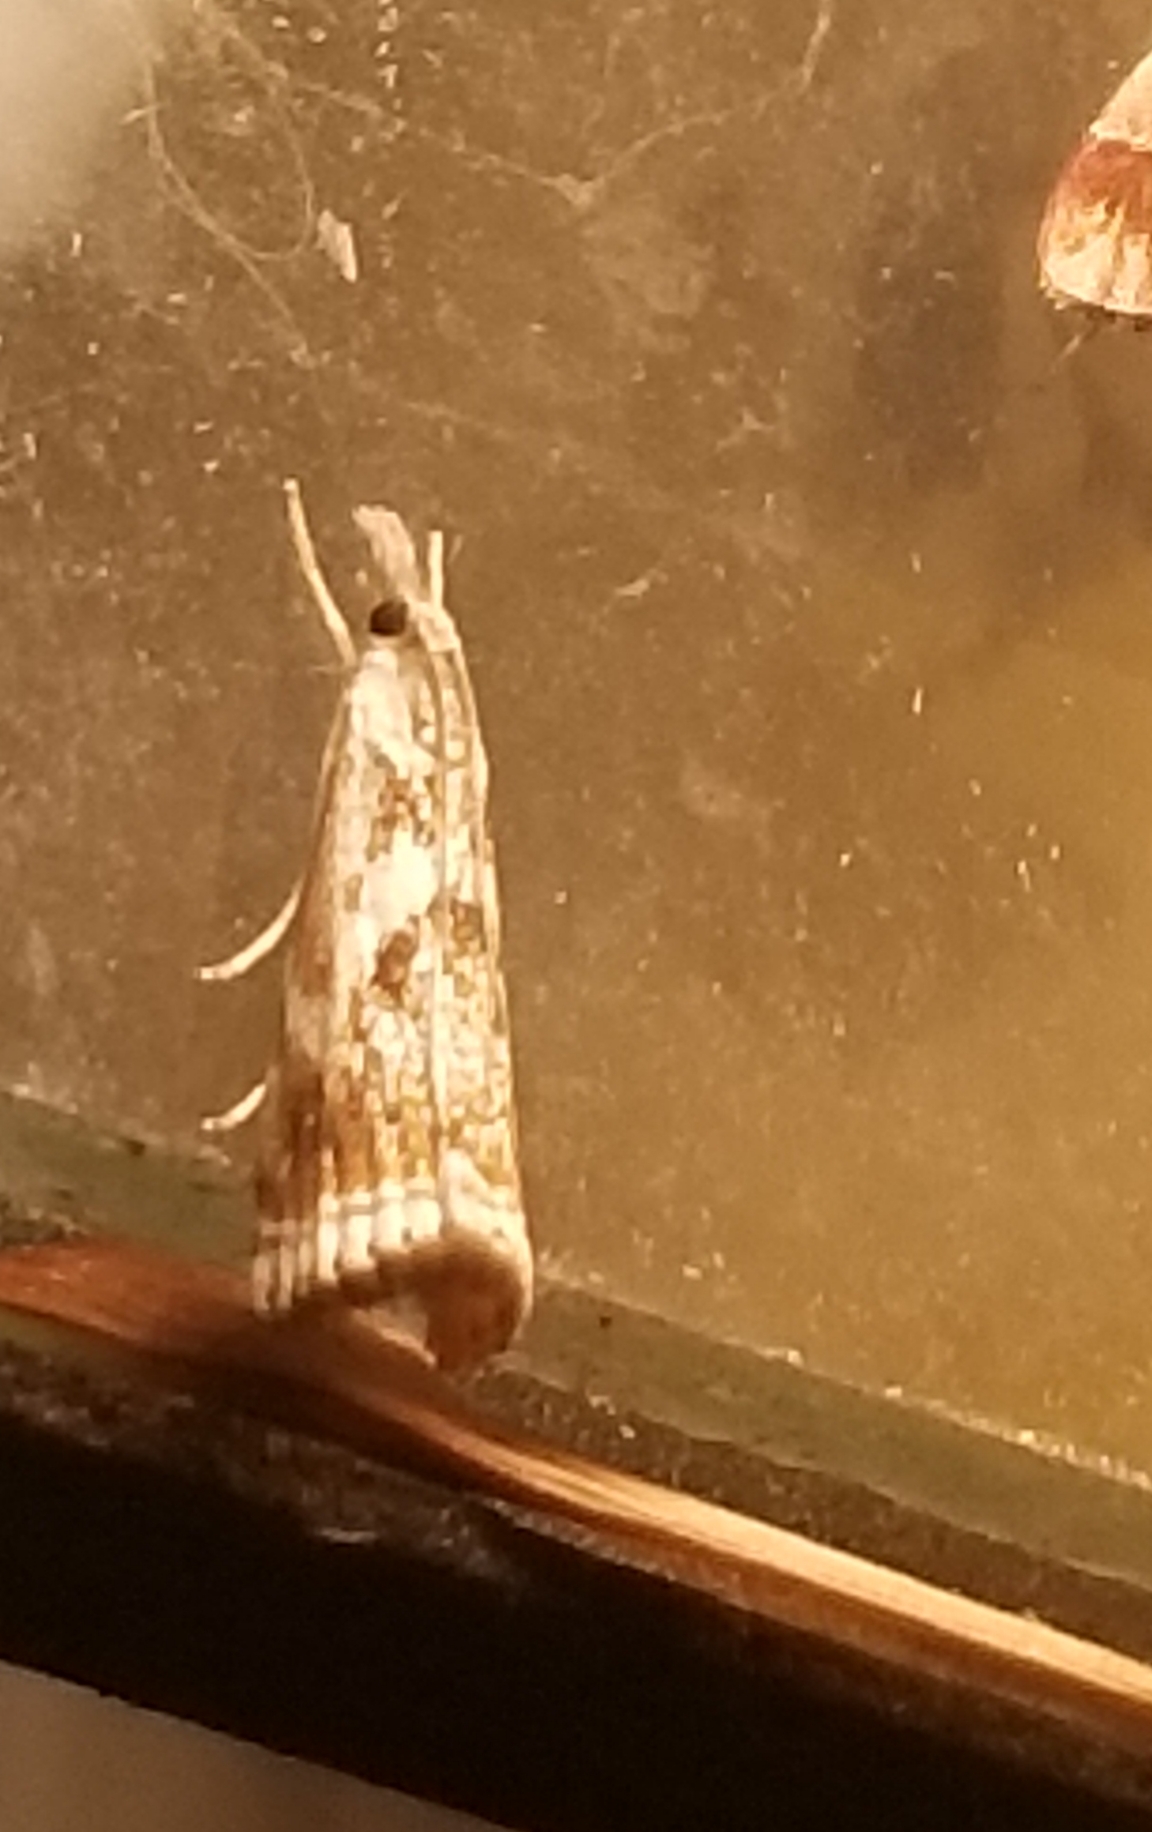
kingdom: Animalia
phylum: Arthropoda
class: Insecta
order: Lepidoptera
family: Crambidae
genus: Microcrambus
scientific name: Microcrambus elegans
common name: Elegant grass-veneer
